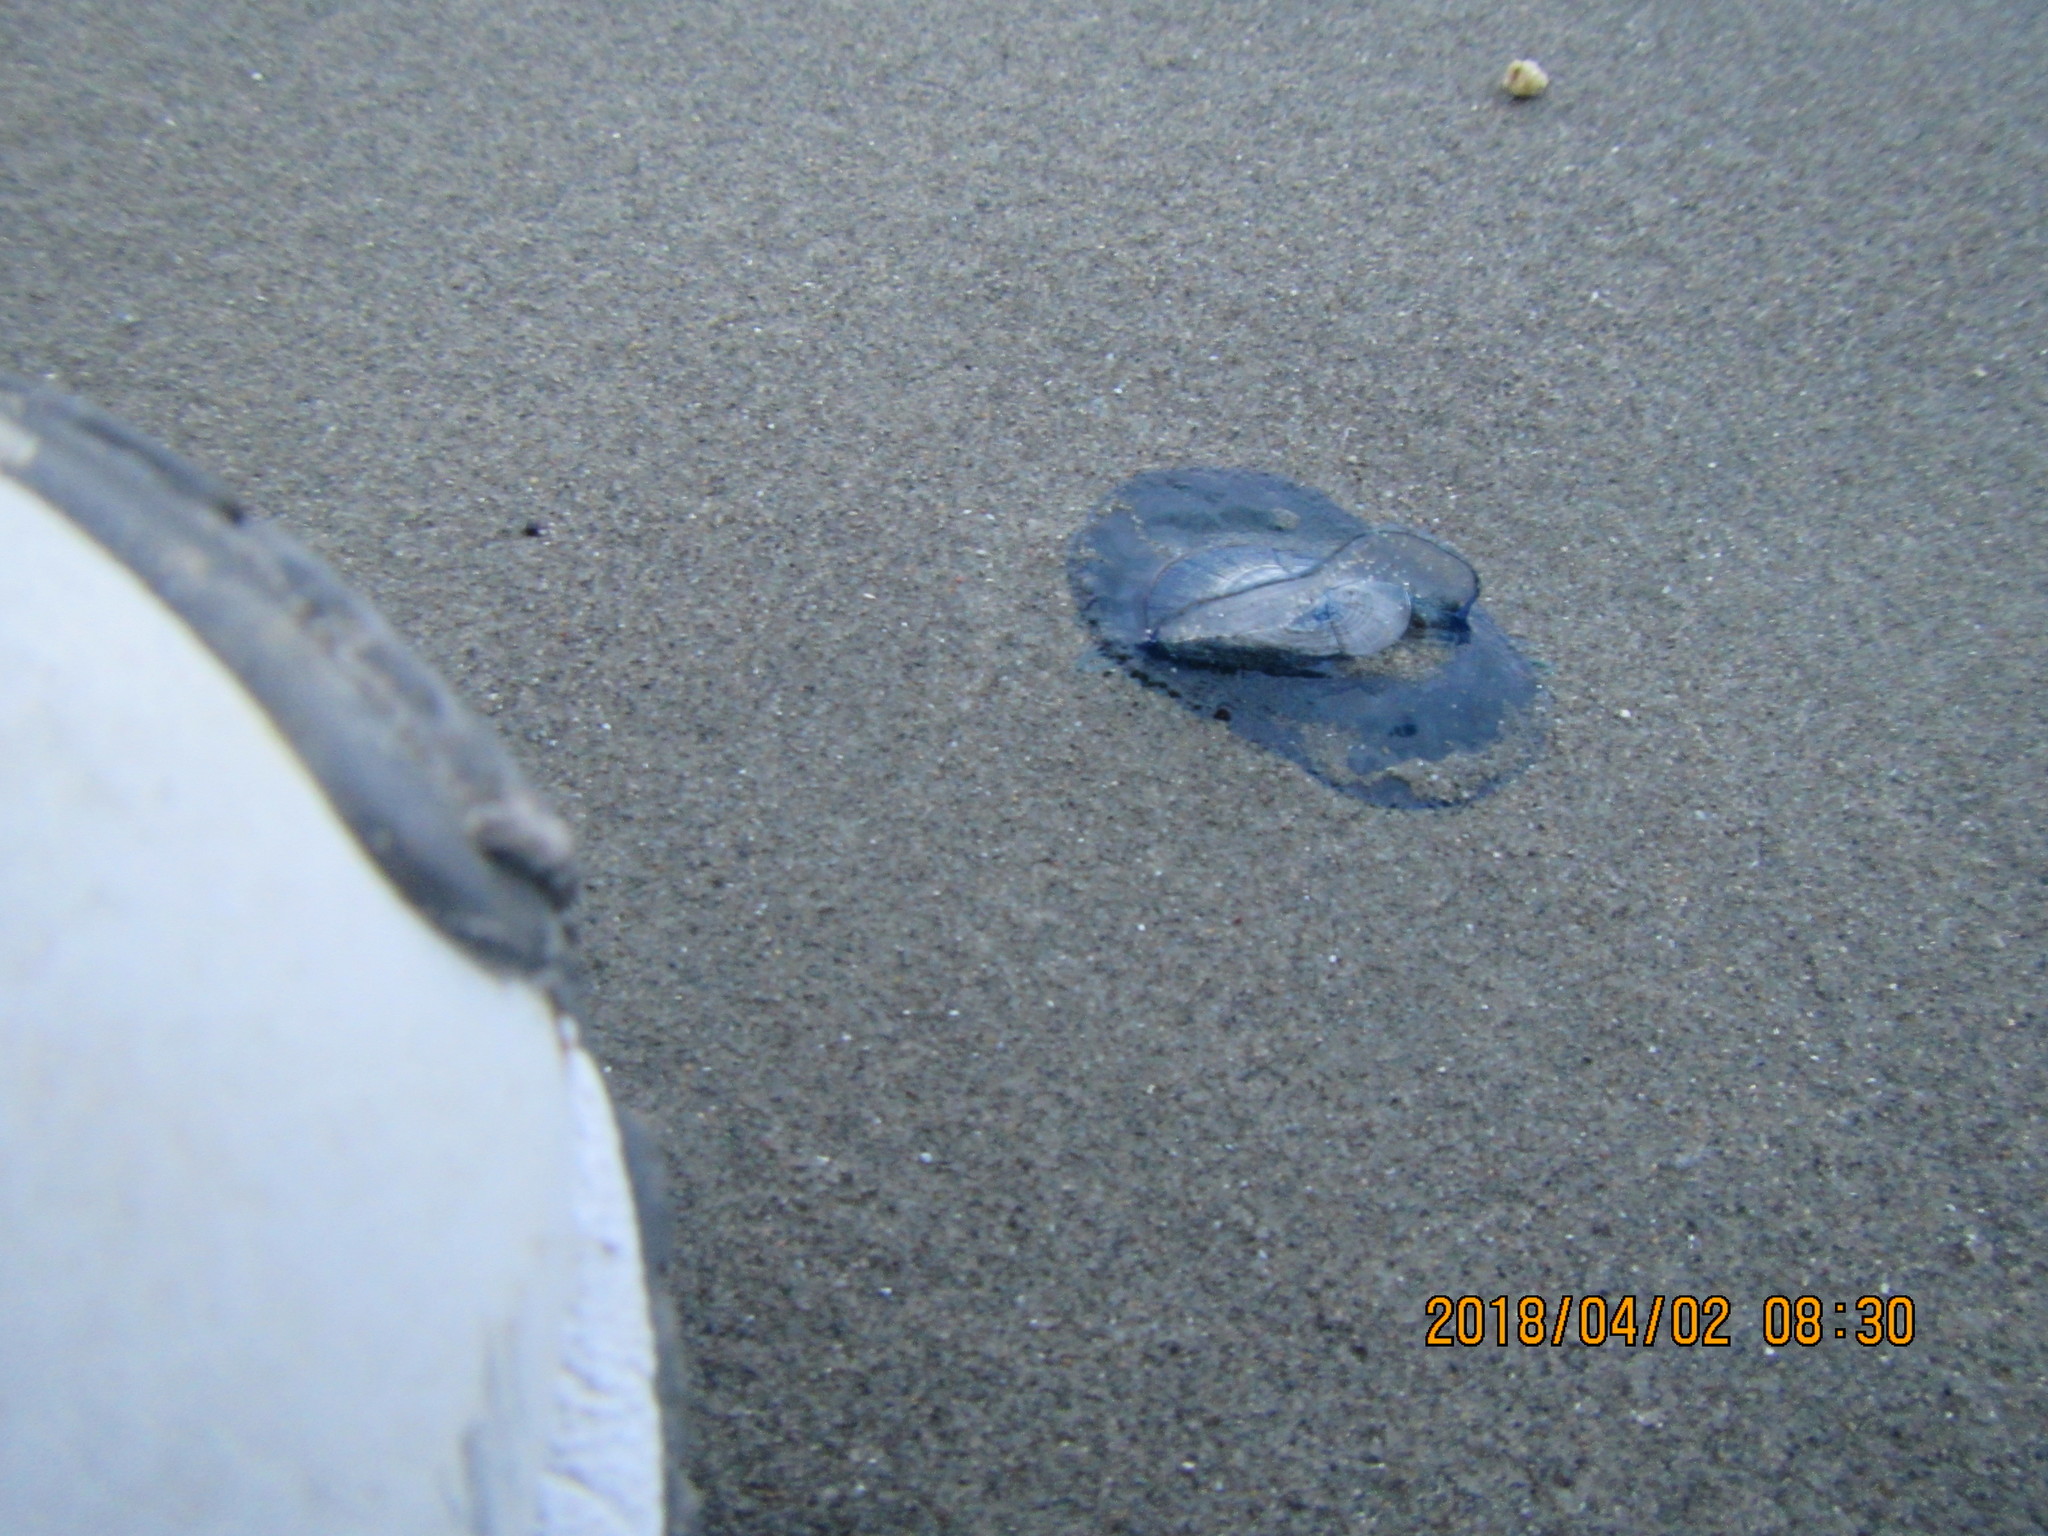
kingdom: Animalia
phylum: Cnidaria
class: Hydrozoa
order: Anthoathecata
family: Porpitidae
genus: Velella
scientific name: Velella velella
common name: By-the-wind-sailor
